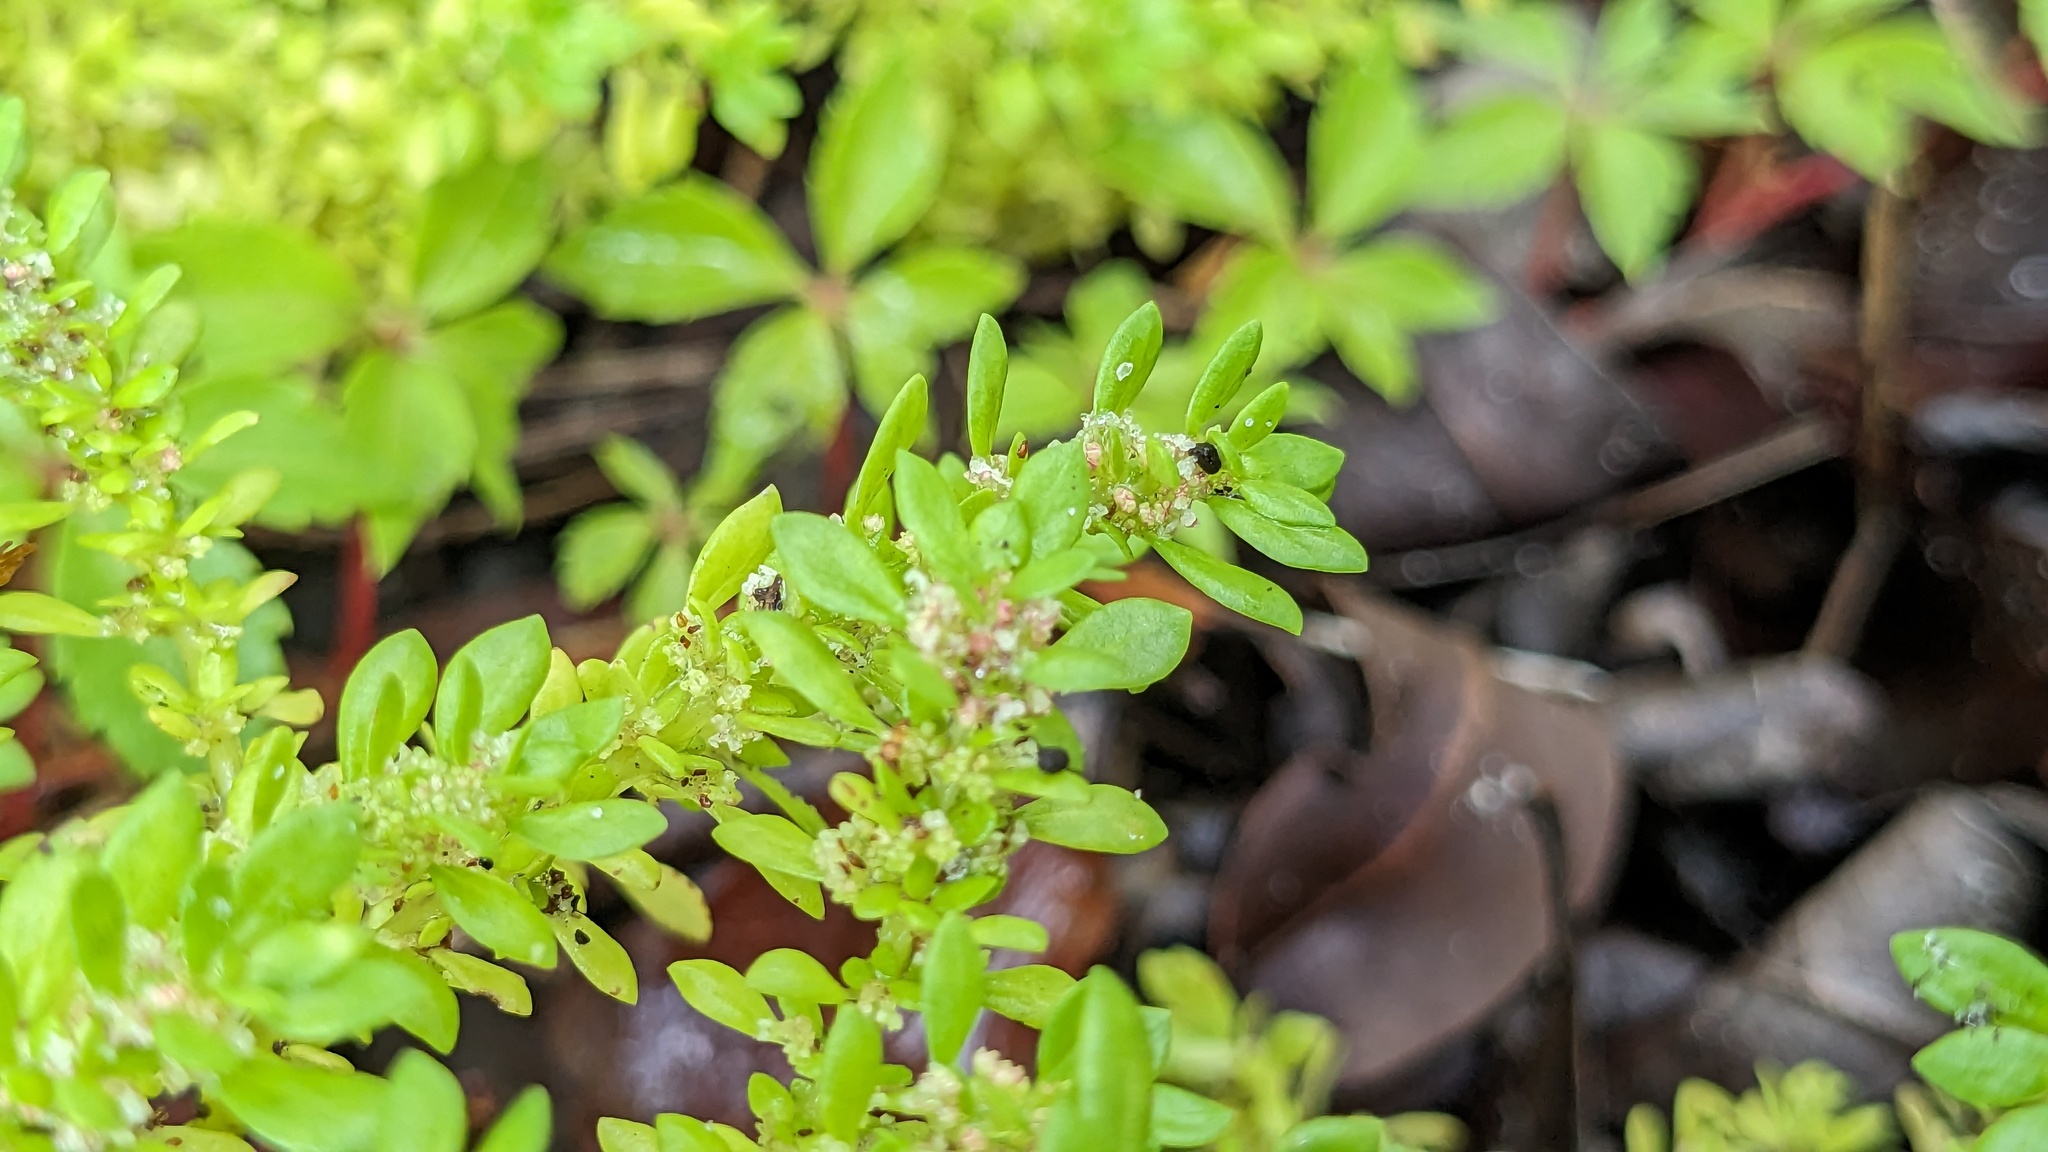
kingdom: Plantae
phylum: Tracheophyta
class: Magnoliopsida
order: Rosales
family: Urticaceae
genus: Pilea
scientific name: Pilea microphylla
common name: Artillery-plant
